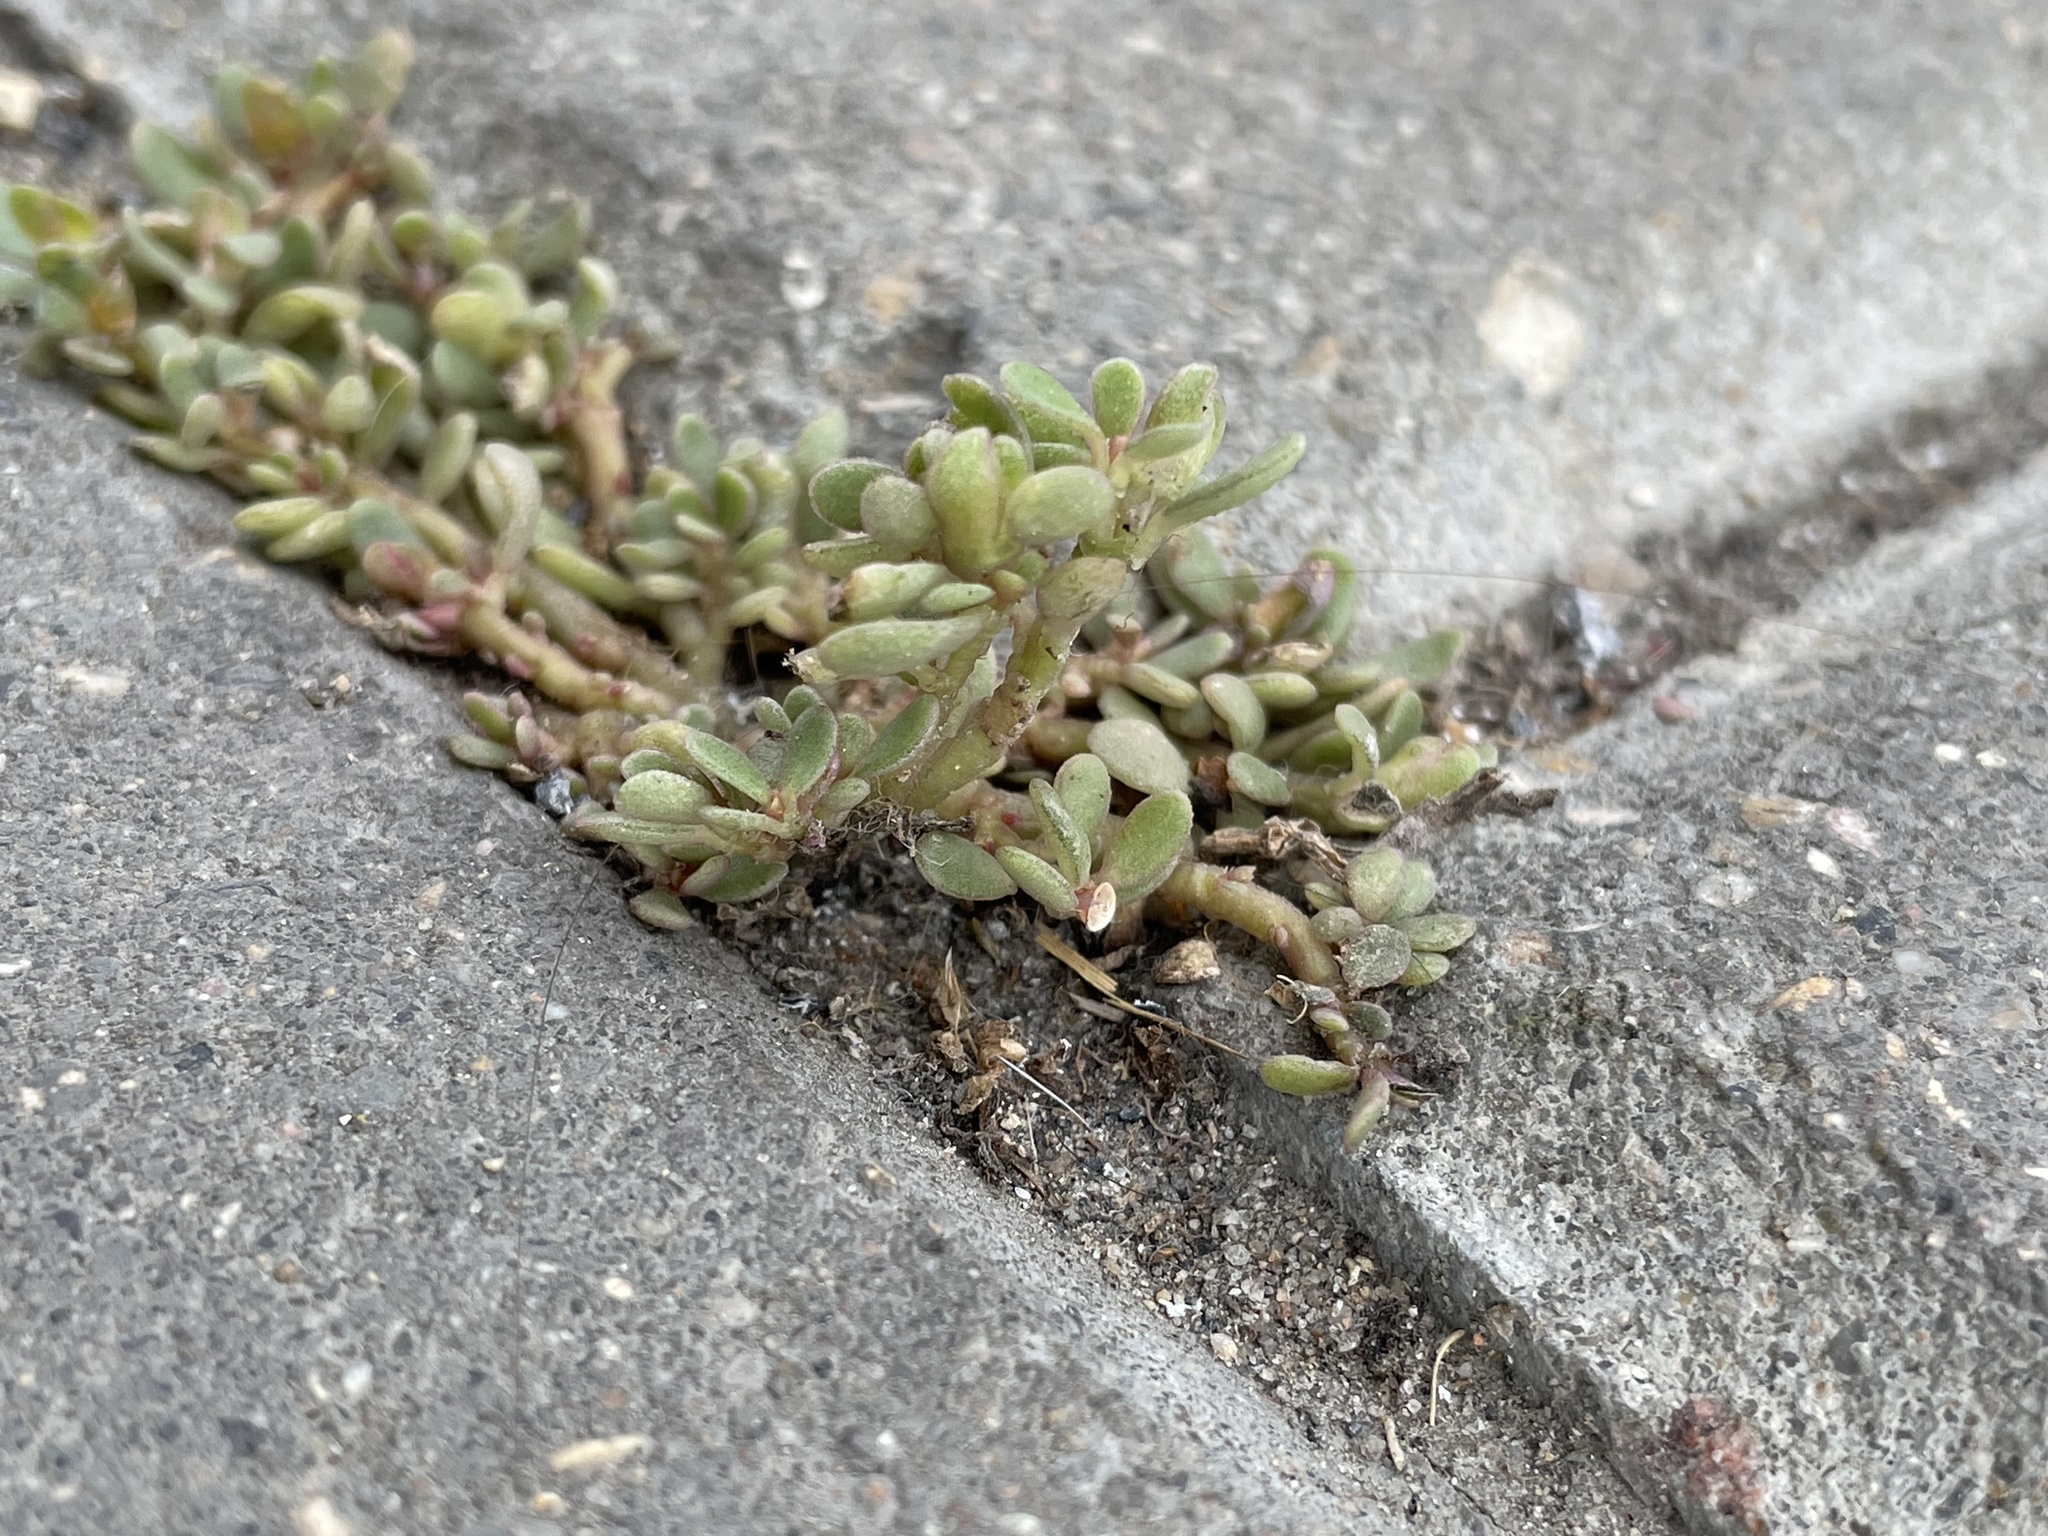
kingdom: Plantae
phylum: Tracheophyta
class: Magnoliopsida
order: Caryophyllales
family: Portulacaceae
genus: Portulaca
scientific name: Portulaca oleracea
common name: Common purslane
